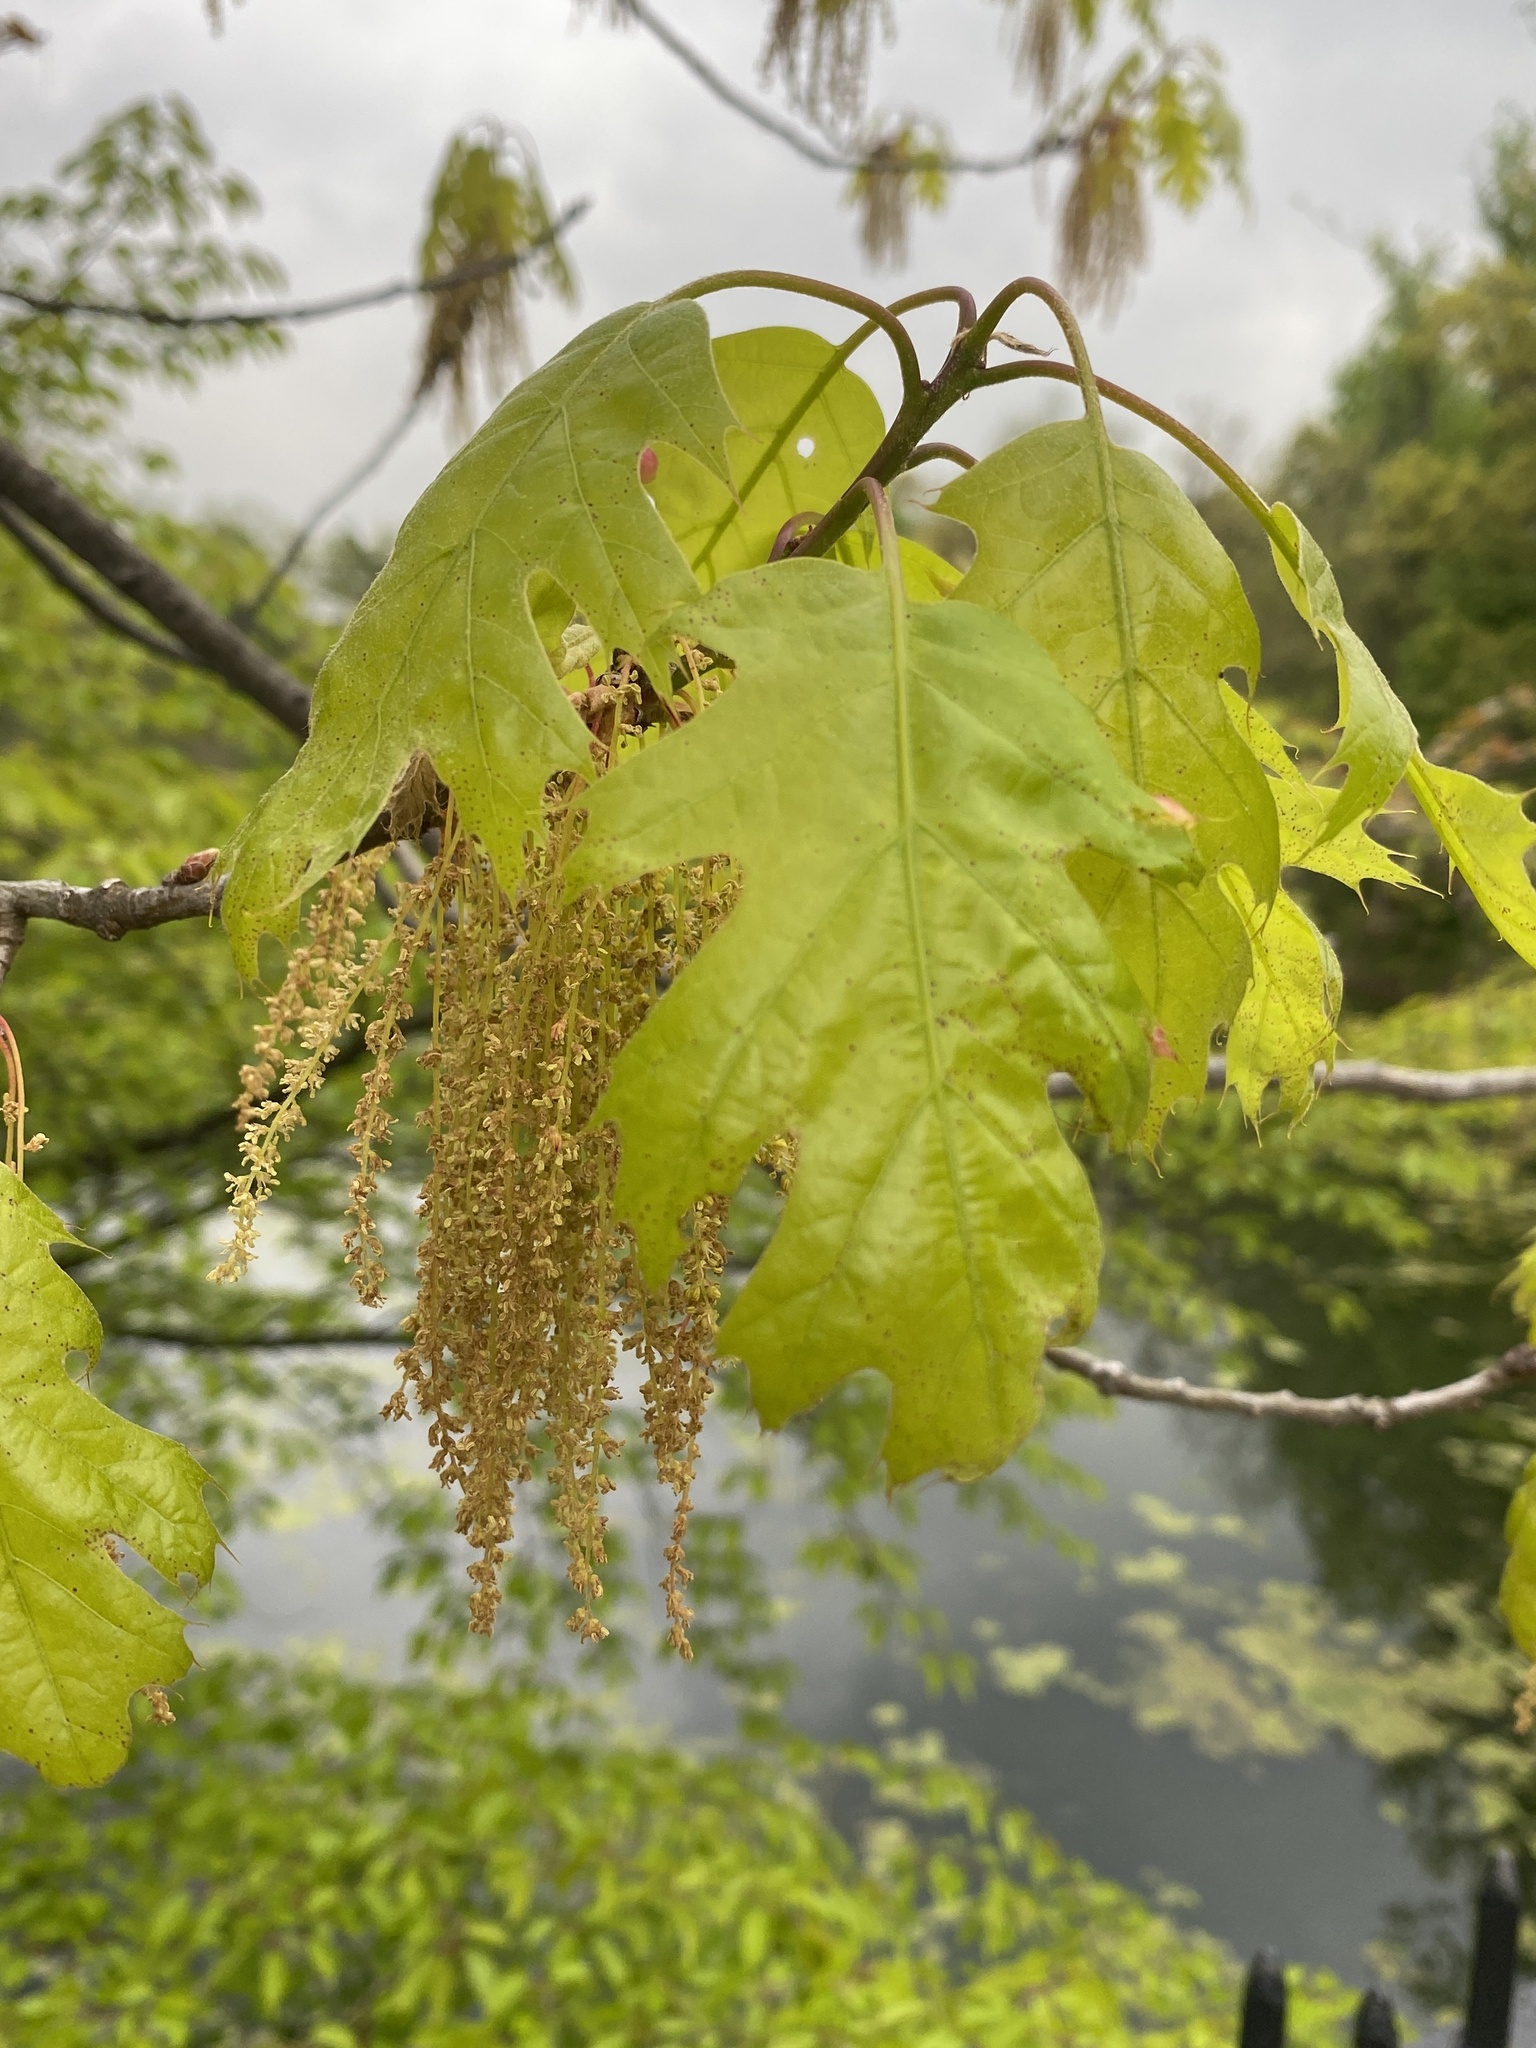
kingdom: Plantae
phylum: Tracheophyta
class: Magnoliopsida
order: Fagales
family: Fagaceae
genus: Quercus
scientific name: Quercus rubra
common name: Red oak
